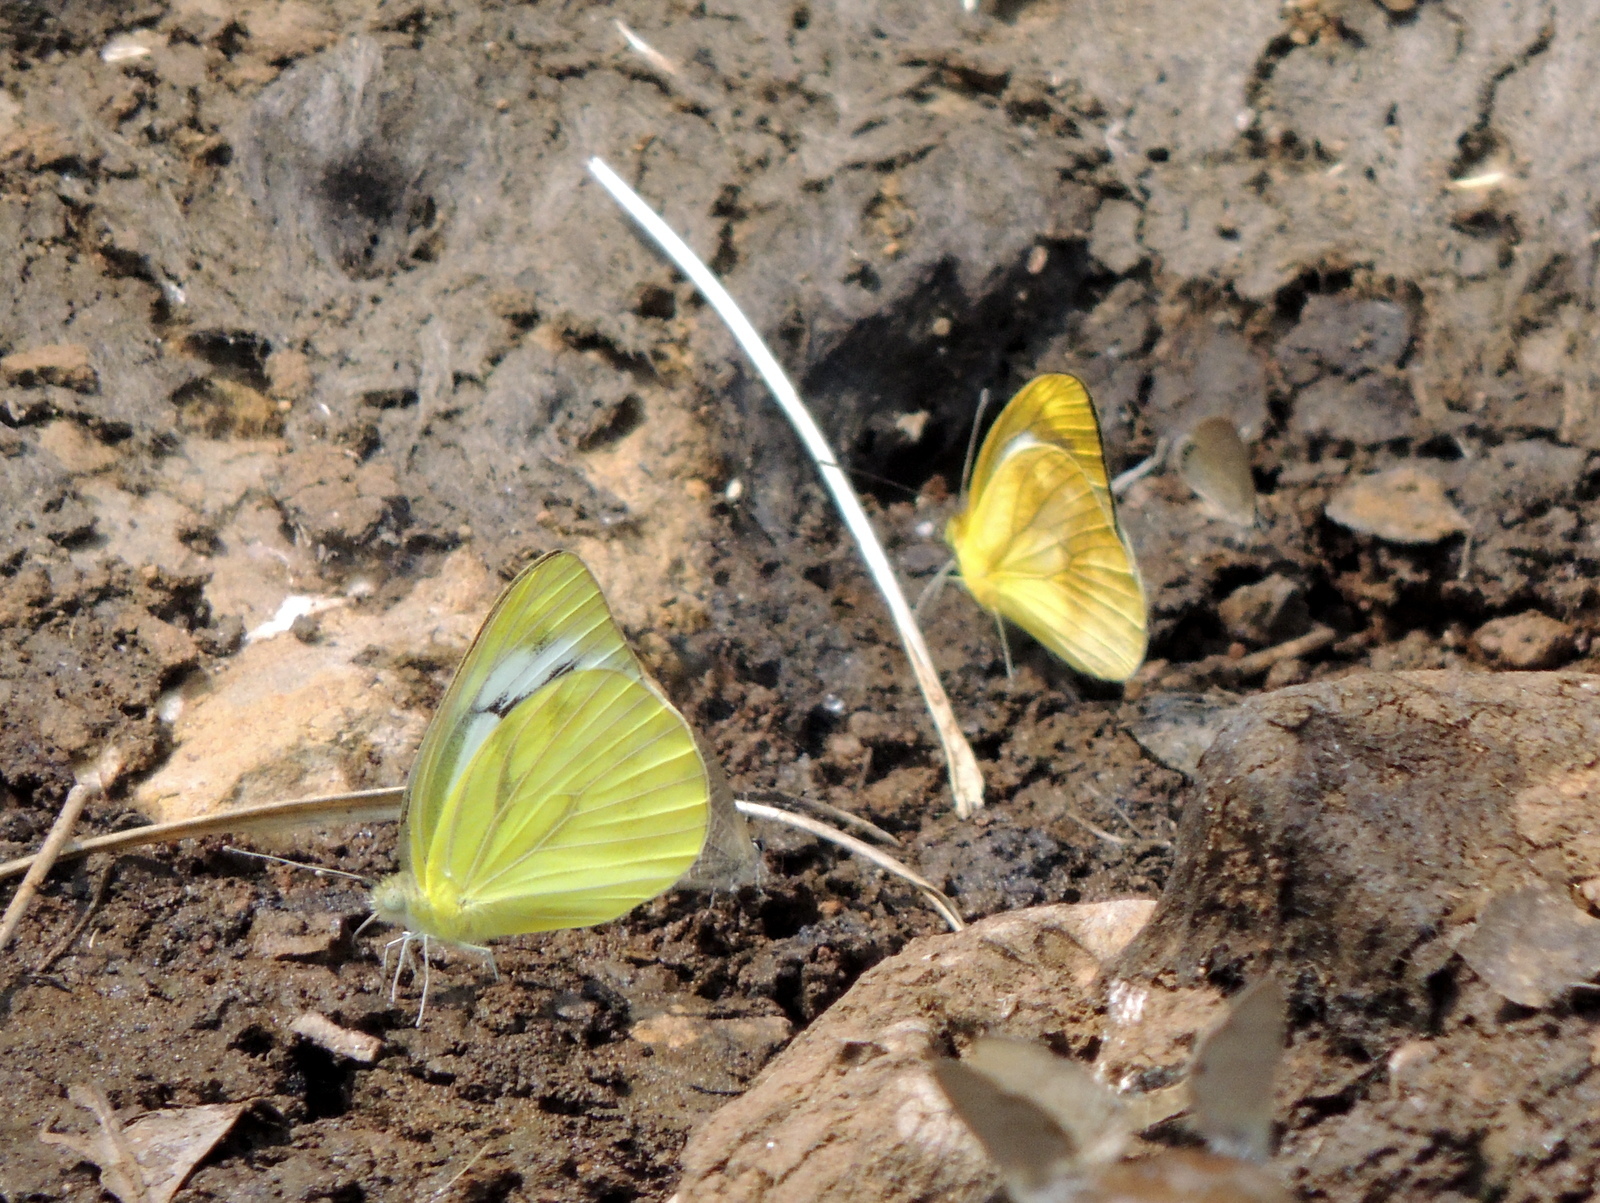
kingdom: Animalia
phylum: Arthropoda
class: Insecta
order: Lepidoptera
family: Pieridae
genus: Cepora
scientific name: Cepora nadina
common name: Lesser gull
